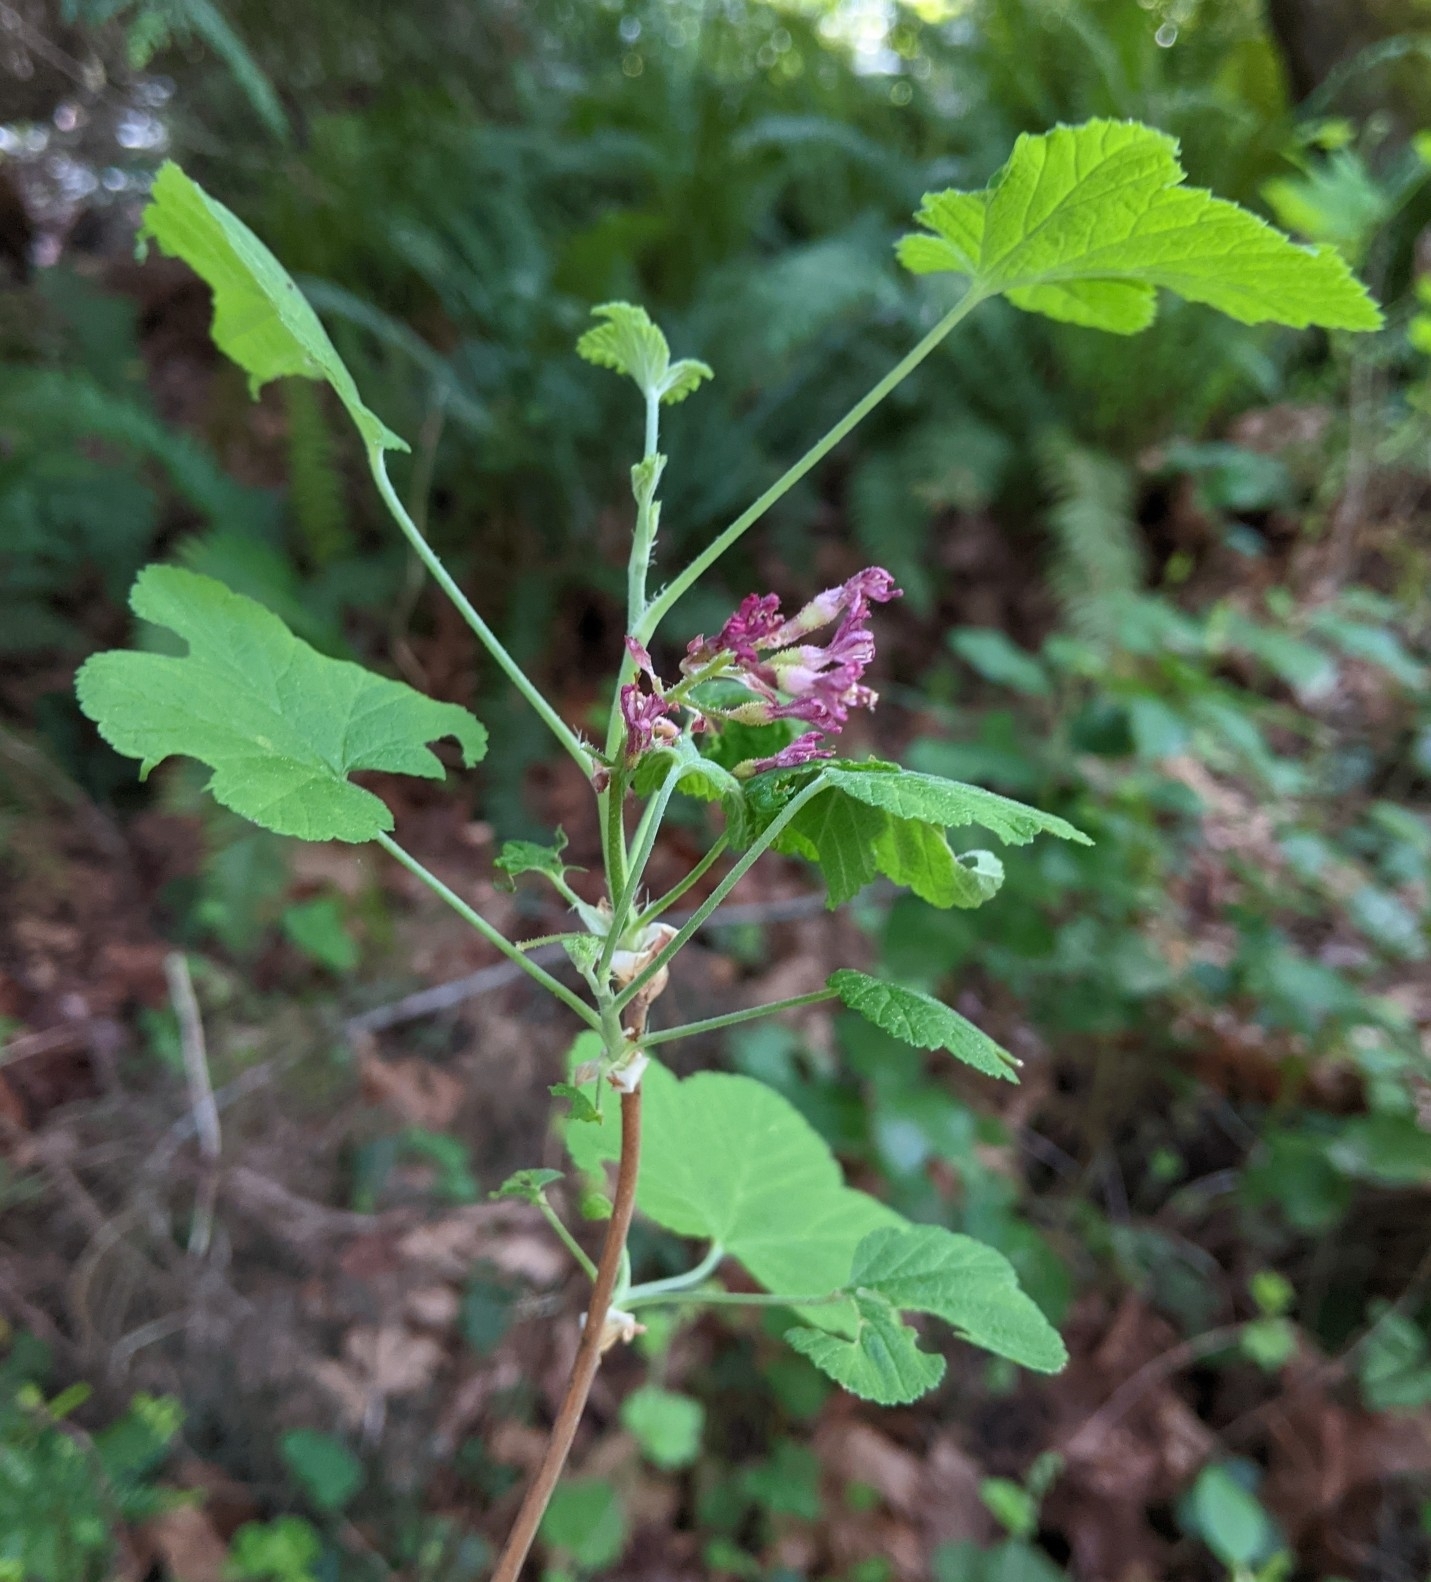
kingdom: Plantae
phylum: Tracheophyta
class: Magnoliopsida
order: Saxifragales
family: Grossulariaceae
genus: Ribes
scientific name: Ribes sanguineum
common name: Flowering currant
